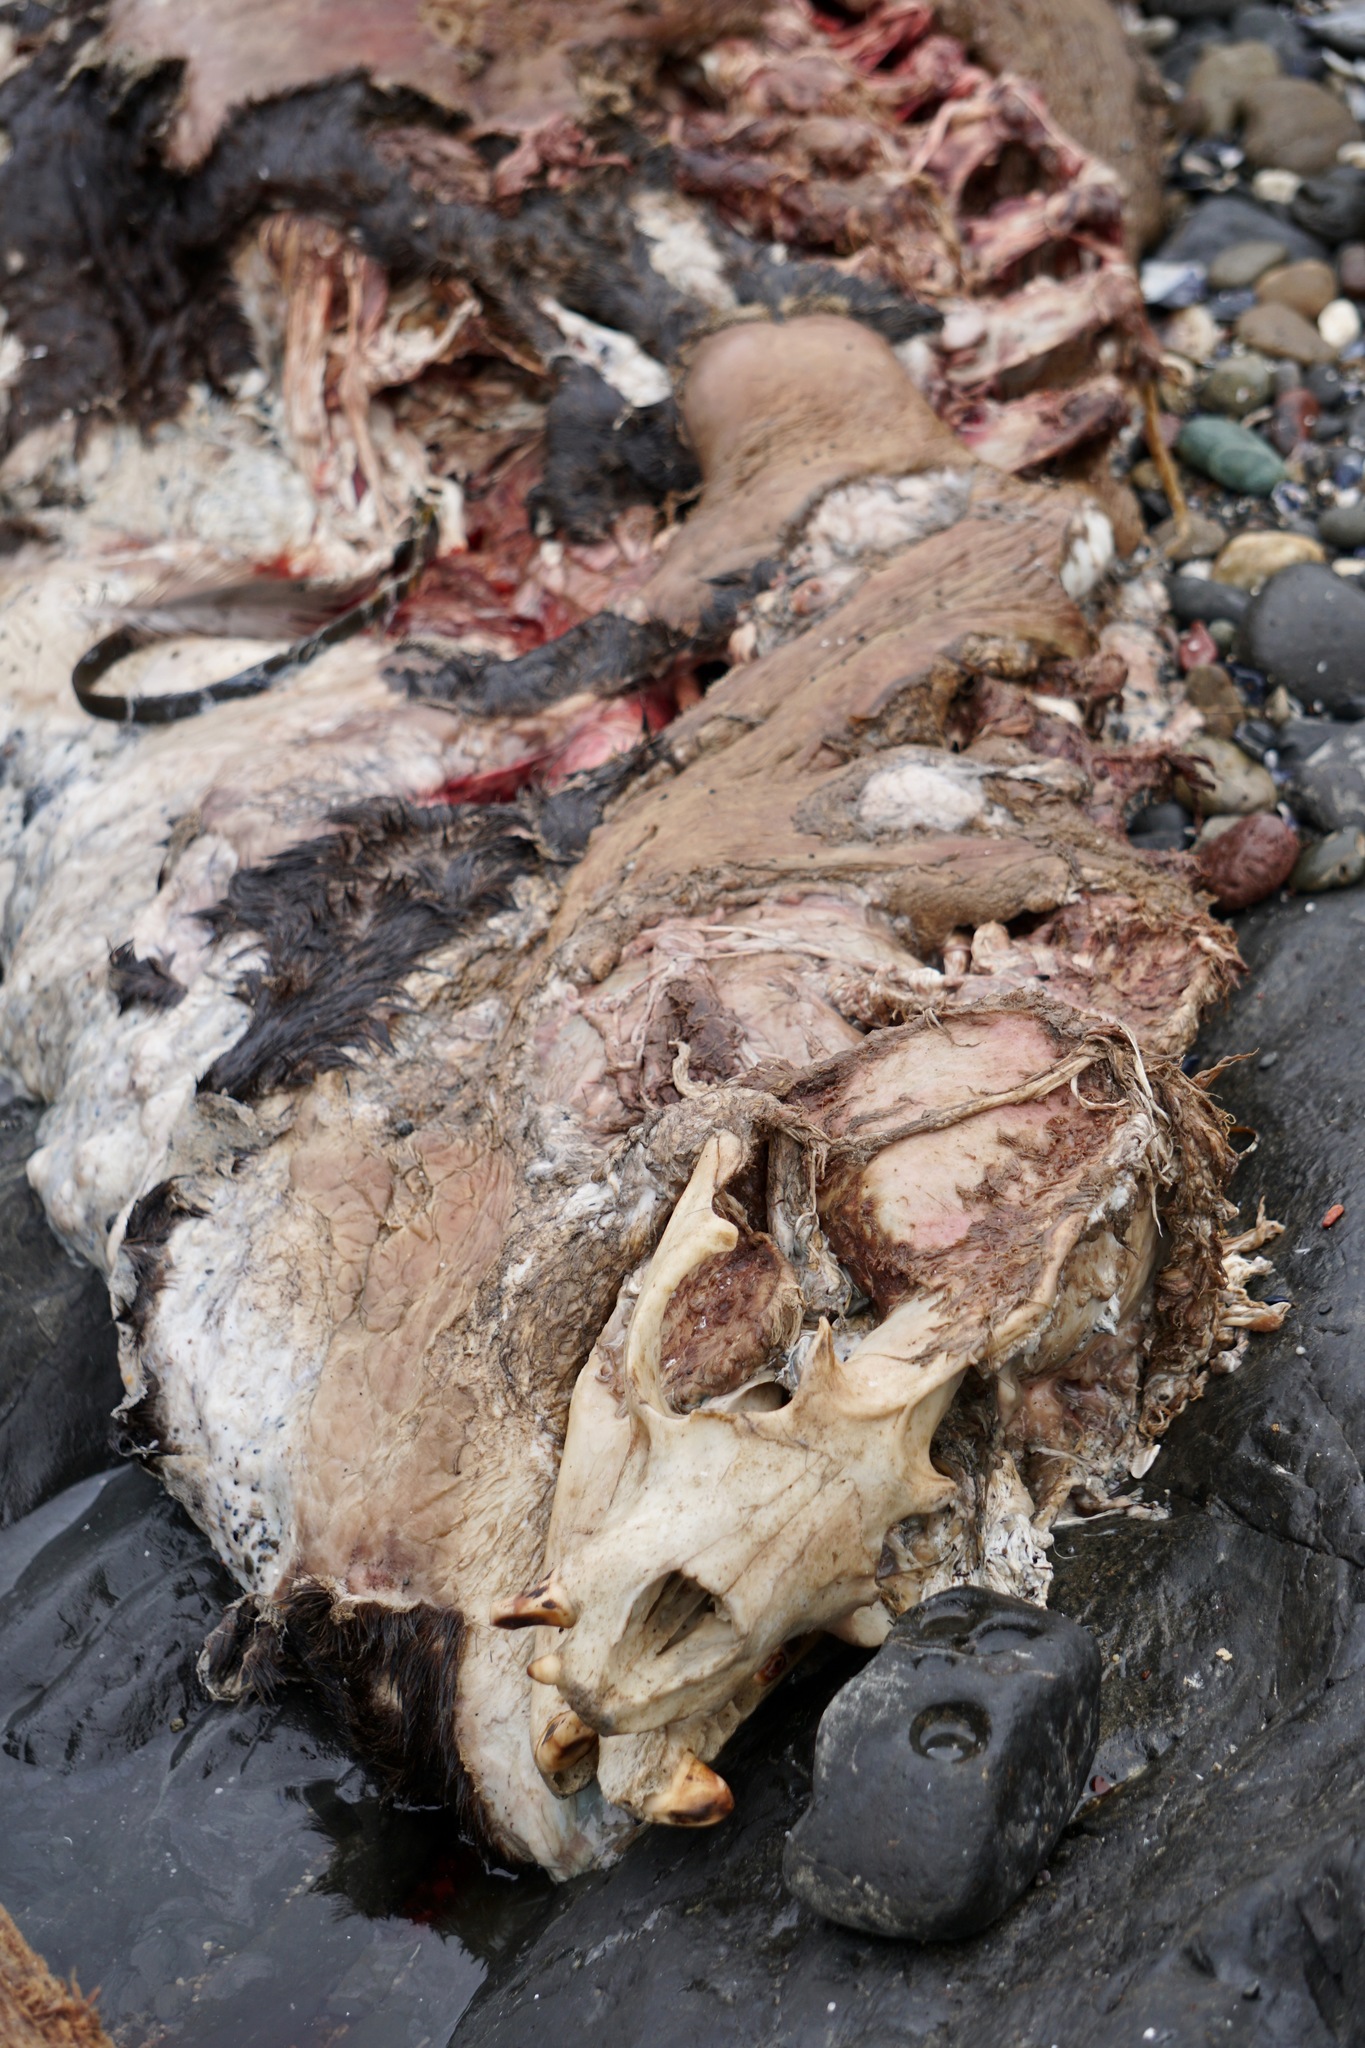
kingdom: Animalia
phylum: Chordata
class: Mammalia
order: Carnivora
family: Otariidae
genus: Zalophus
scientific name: Zalophus californianus
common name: California sea lion
